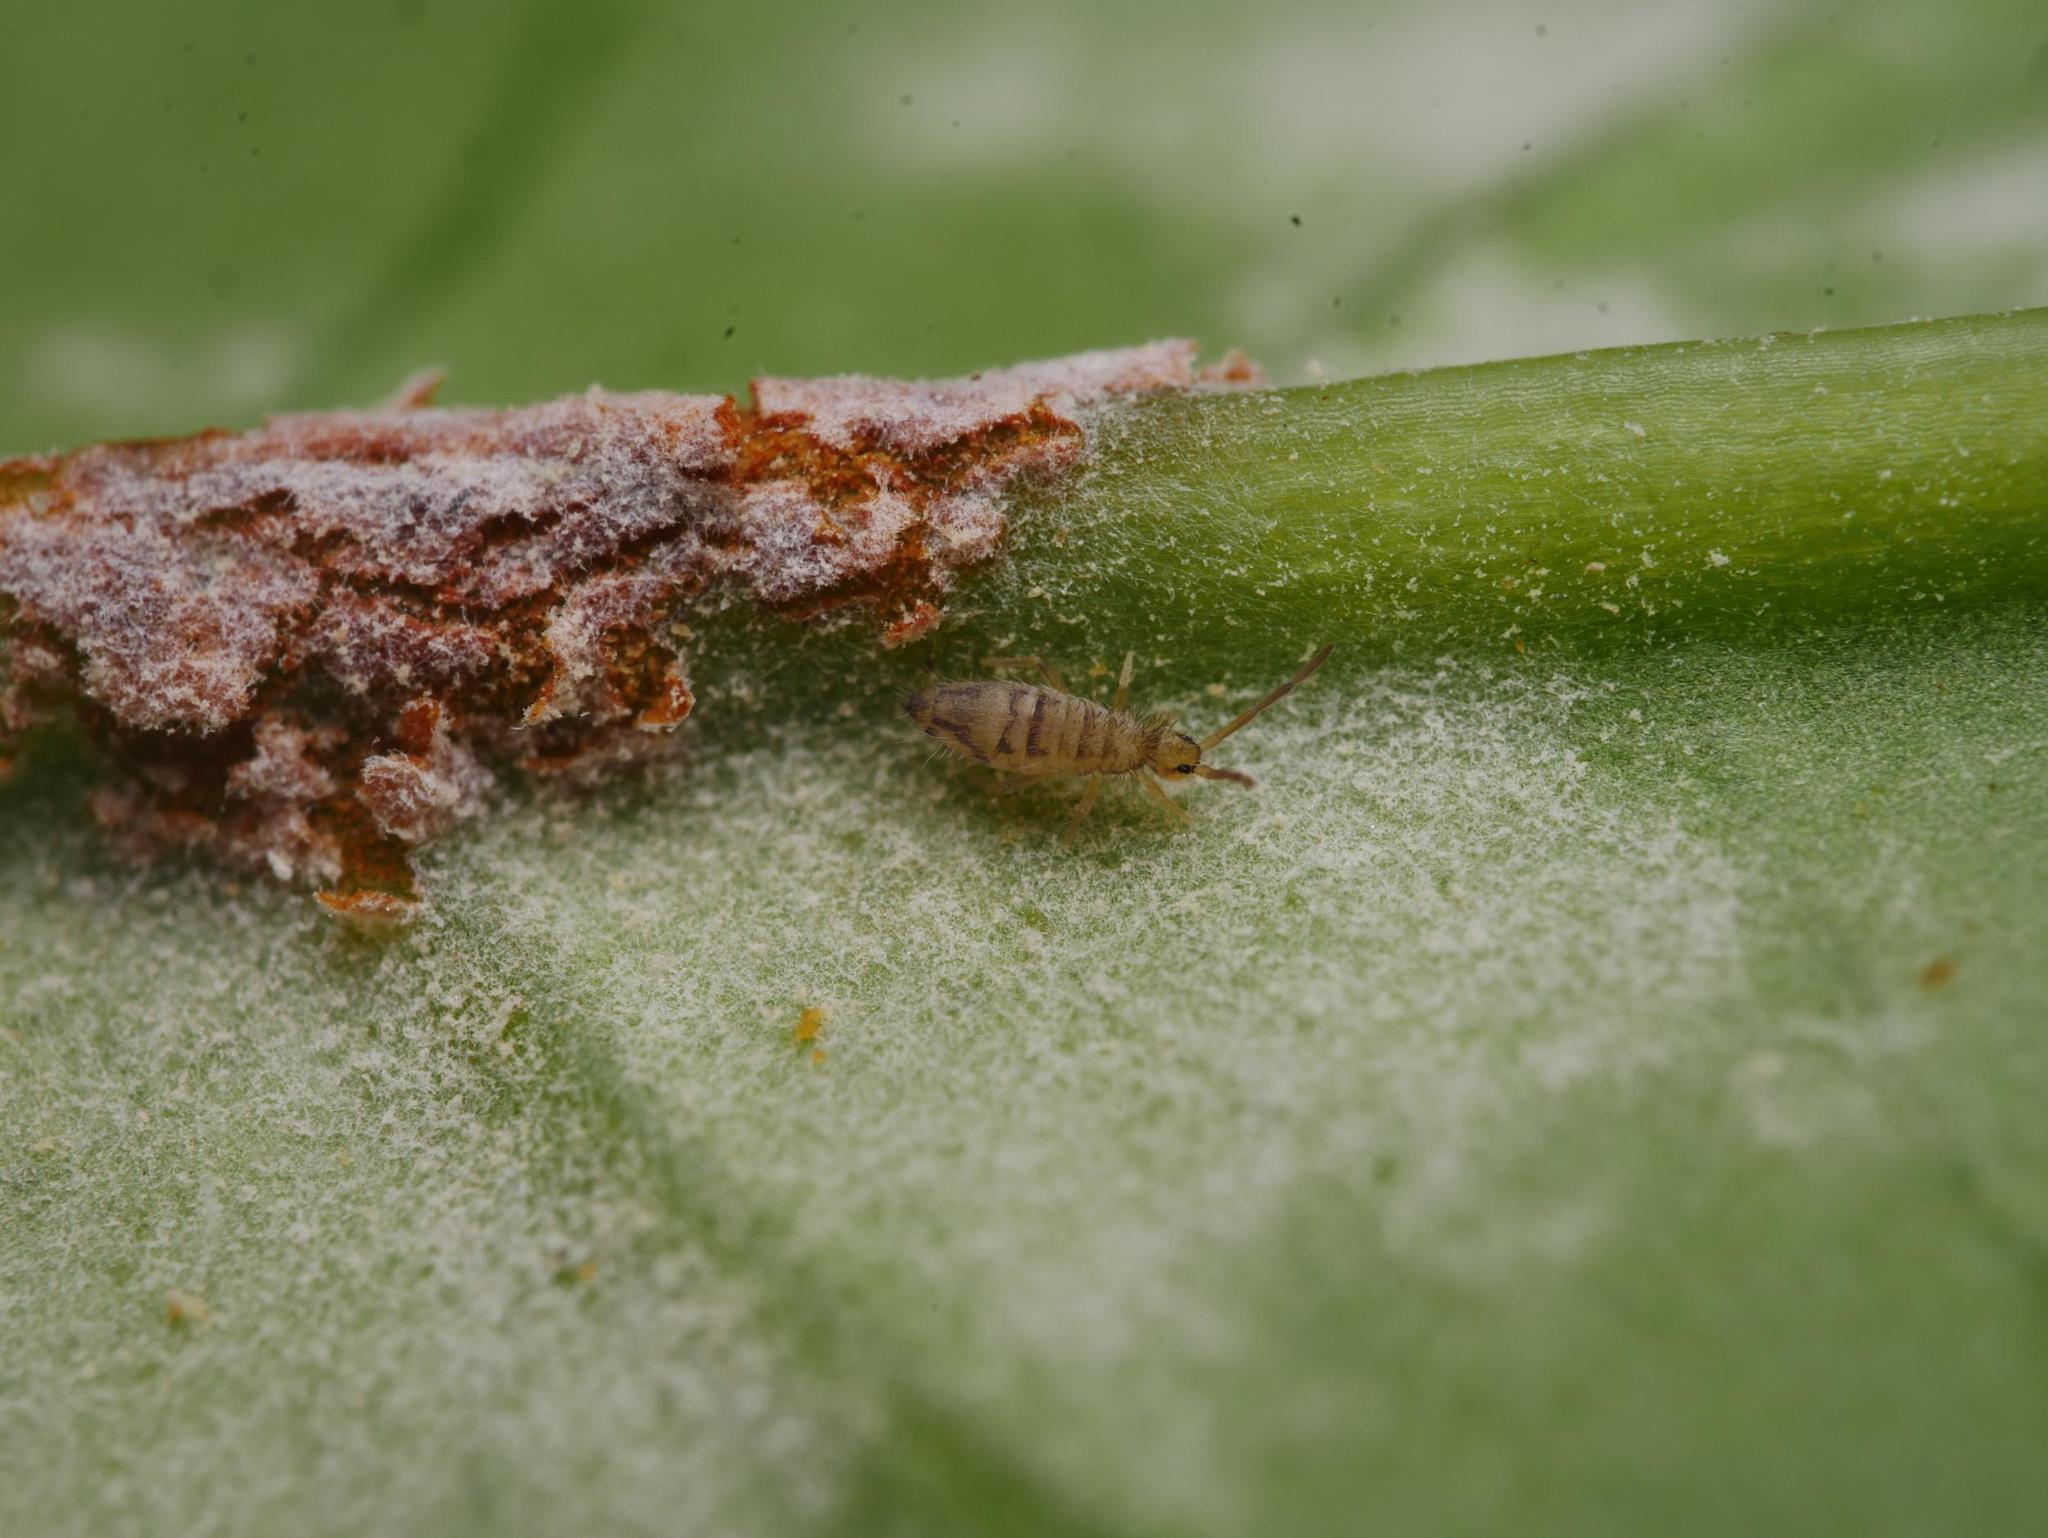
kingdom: Animalia
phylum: Arthropoda
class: Collembola
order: Entomobryomorpha
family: Entomobryidae
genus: Entomobrya
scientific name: Entomobrya nivalis
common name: Cosmopolitan springtail
